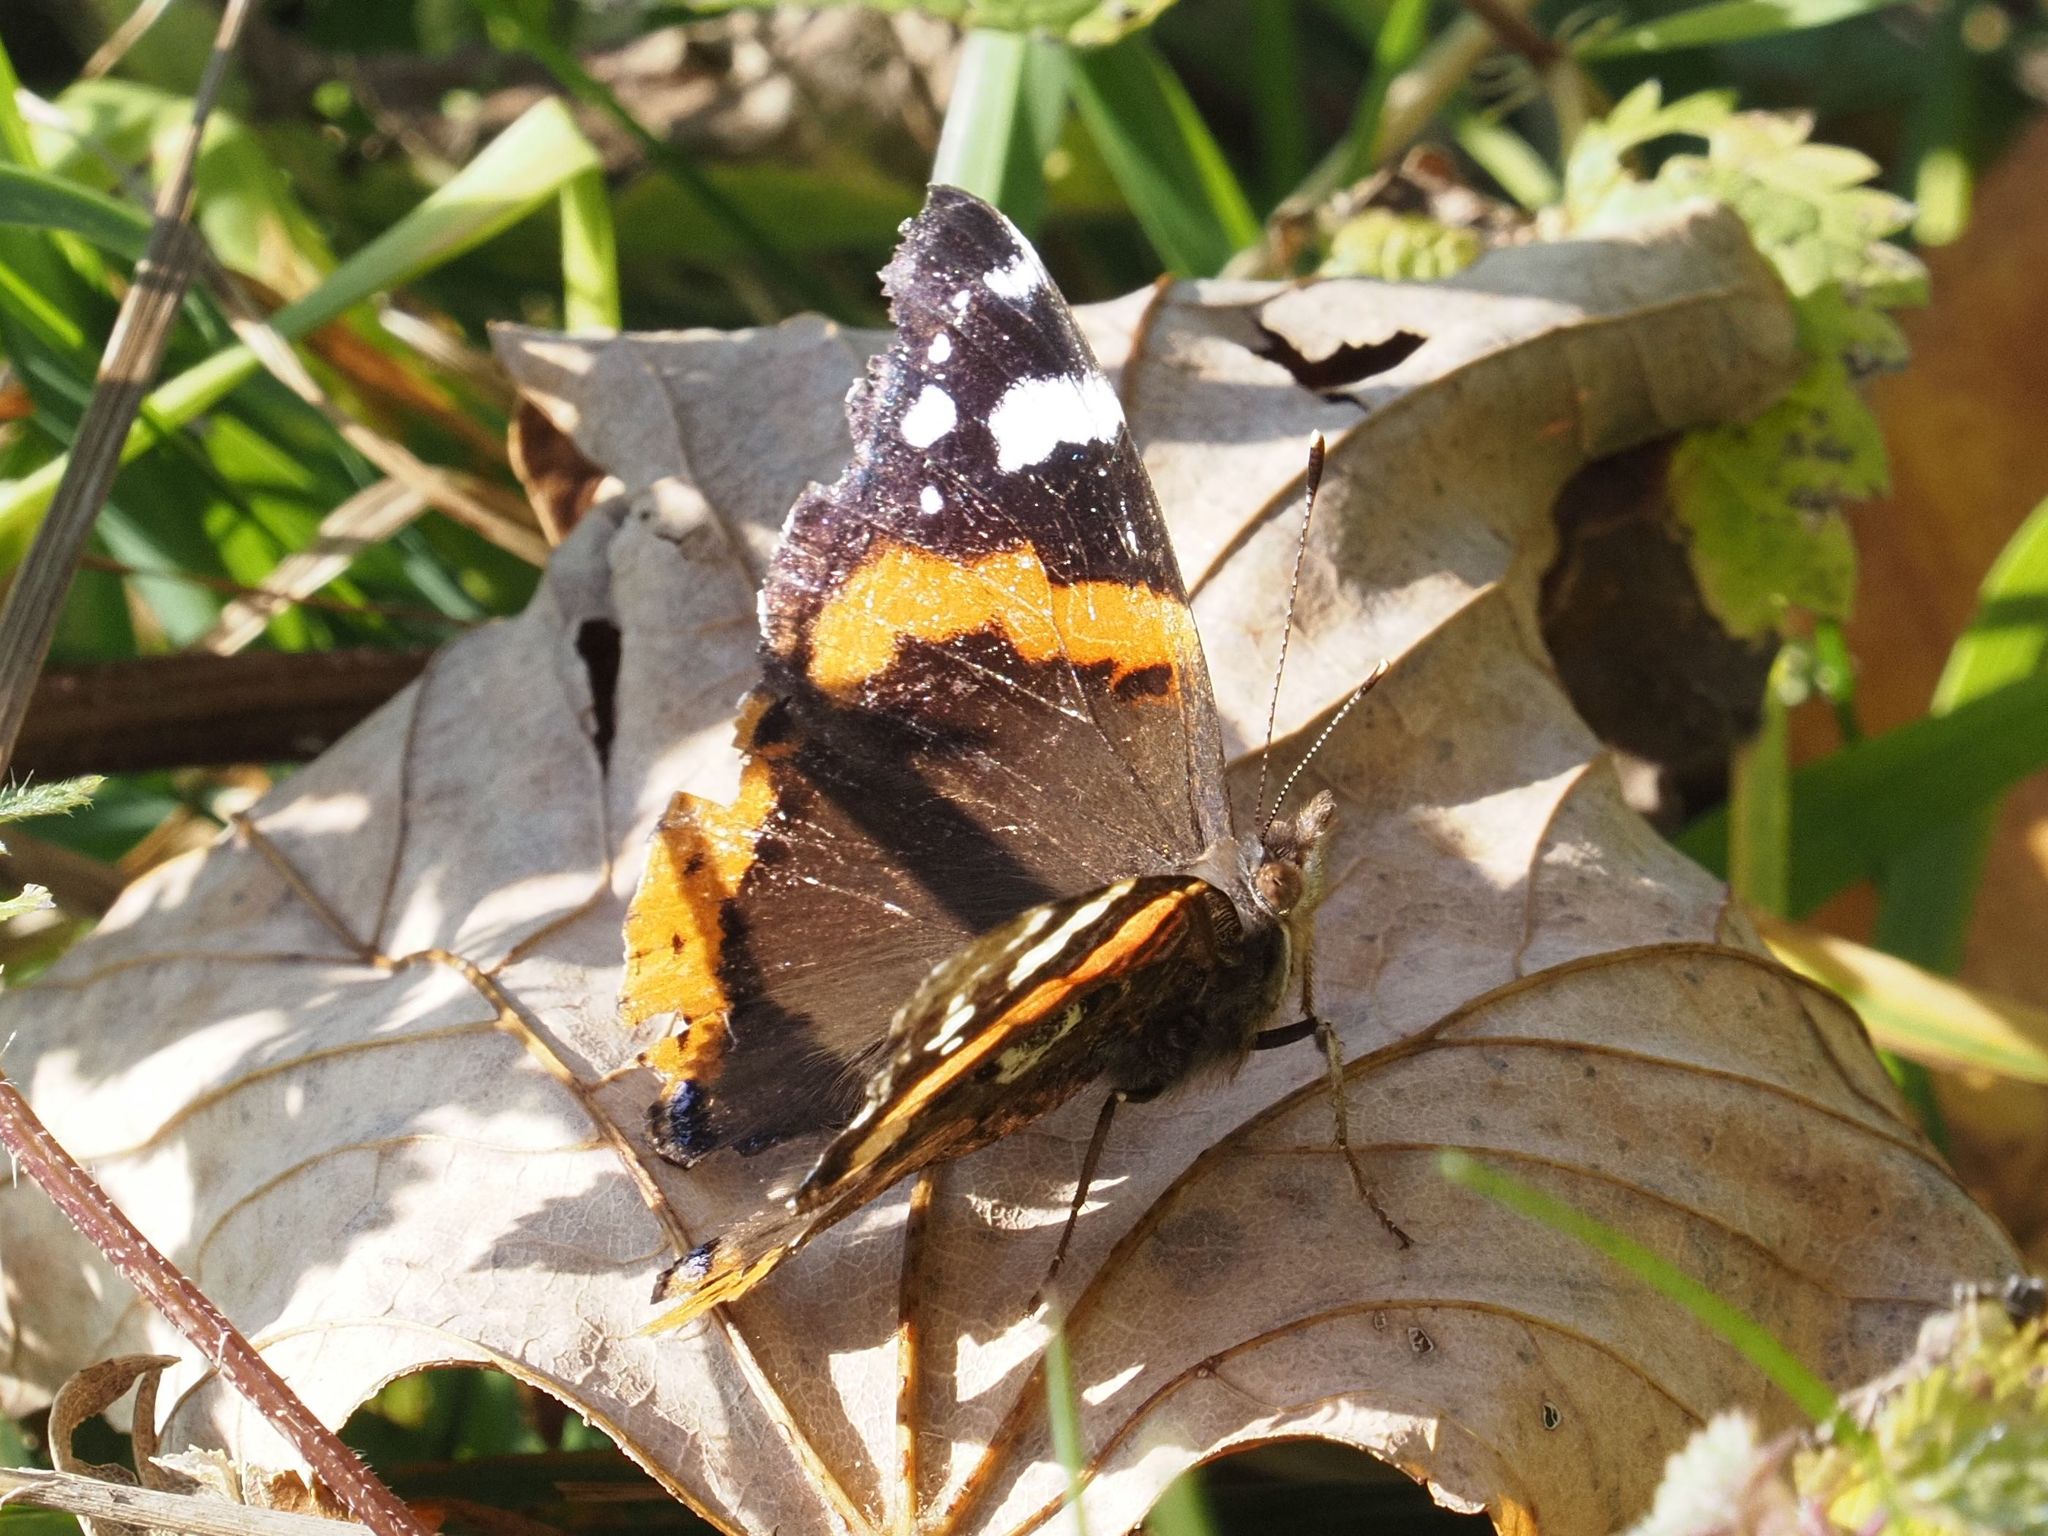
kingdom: Animalia
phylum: Arthropoda
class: Insecta
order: Lepidoptera
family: Nymphalidae
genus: Vanessa
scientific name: Vanessa atalanta
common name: Red admiral
